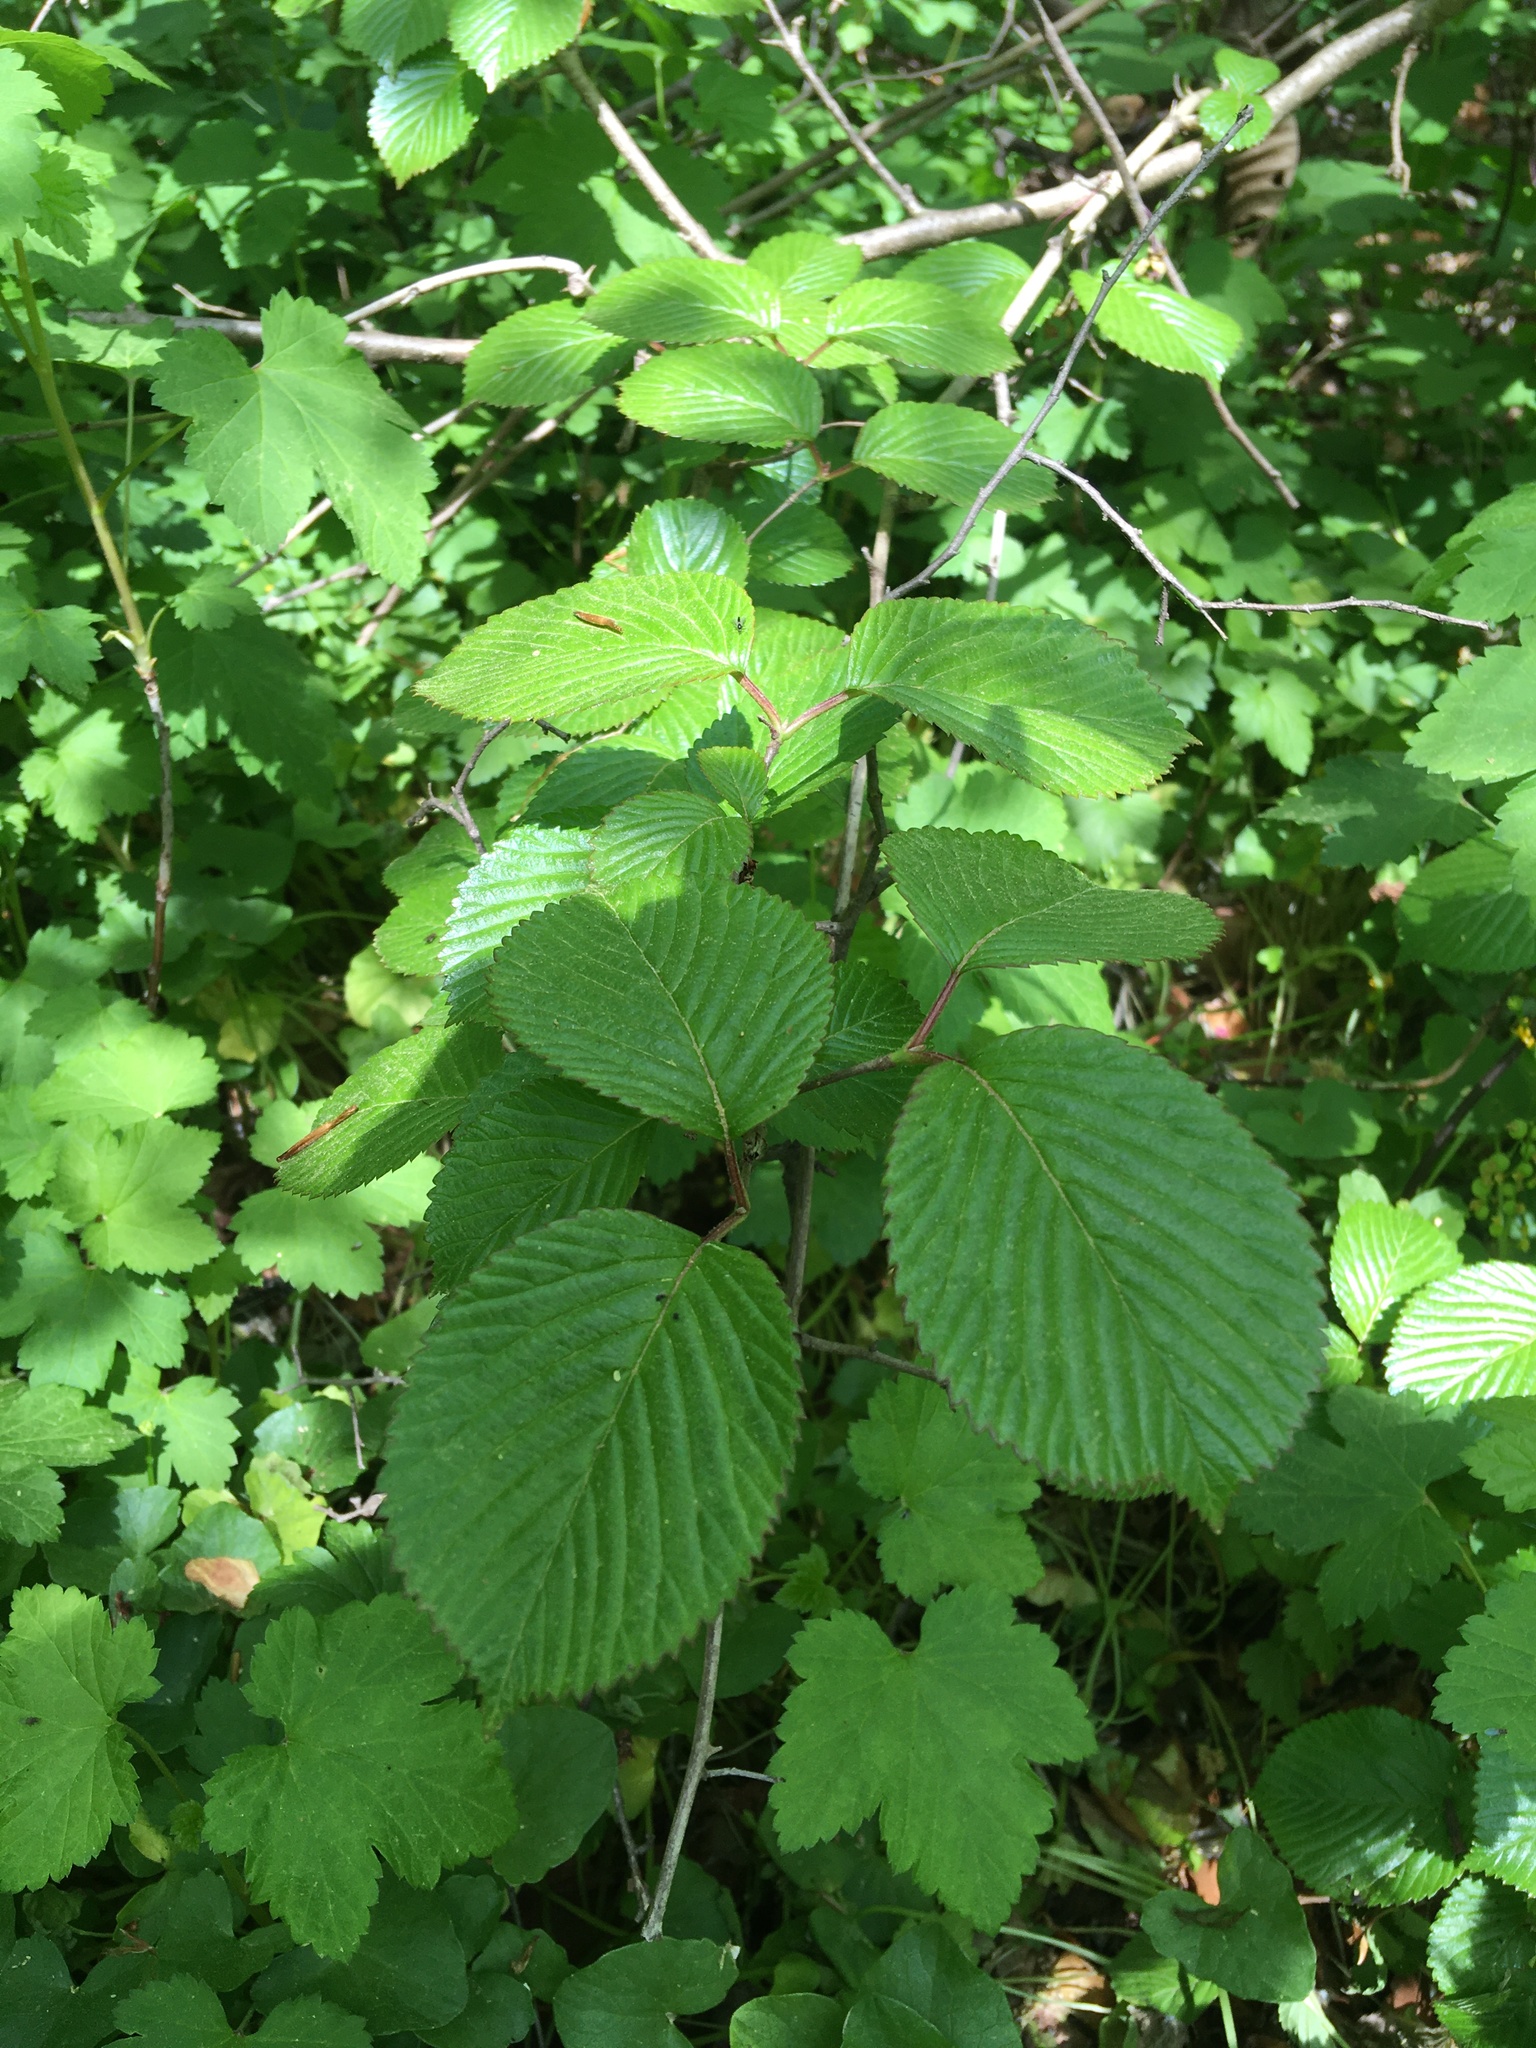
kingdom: Plantae
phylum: Tracheophyta
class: Magnoliopsida
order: Dipsacales
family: Viburnaceae
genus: Viburnum
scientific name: Viburnum plicatum
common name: Japanese snowball
